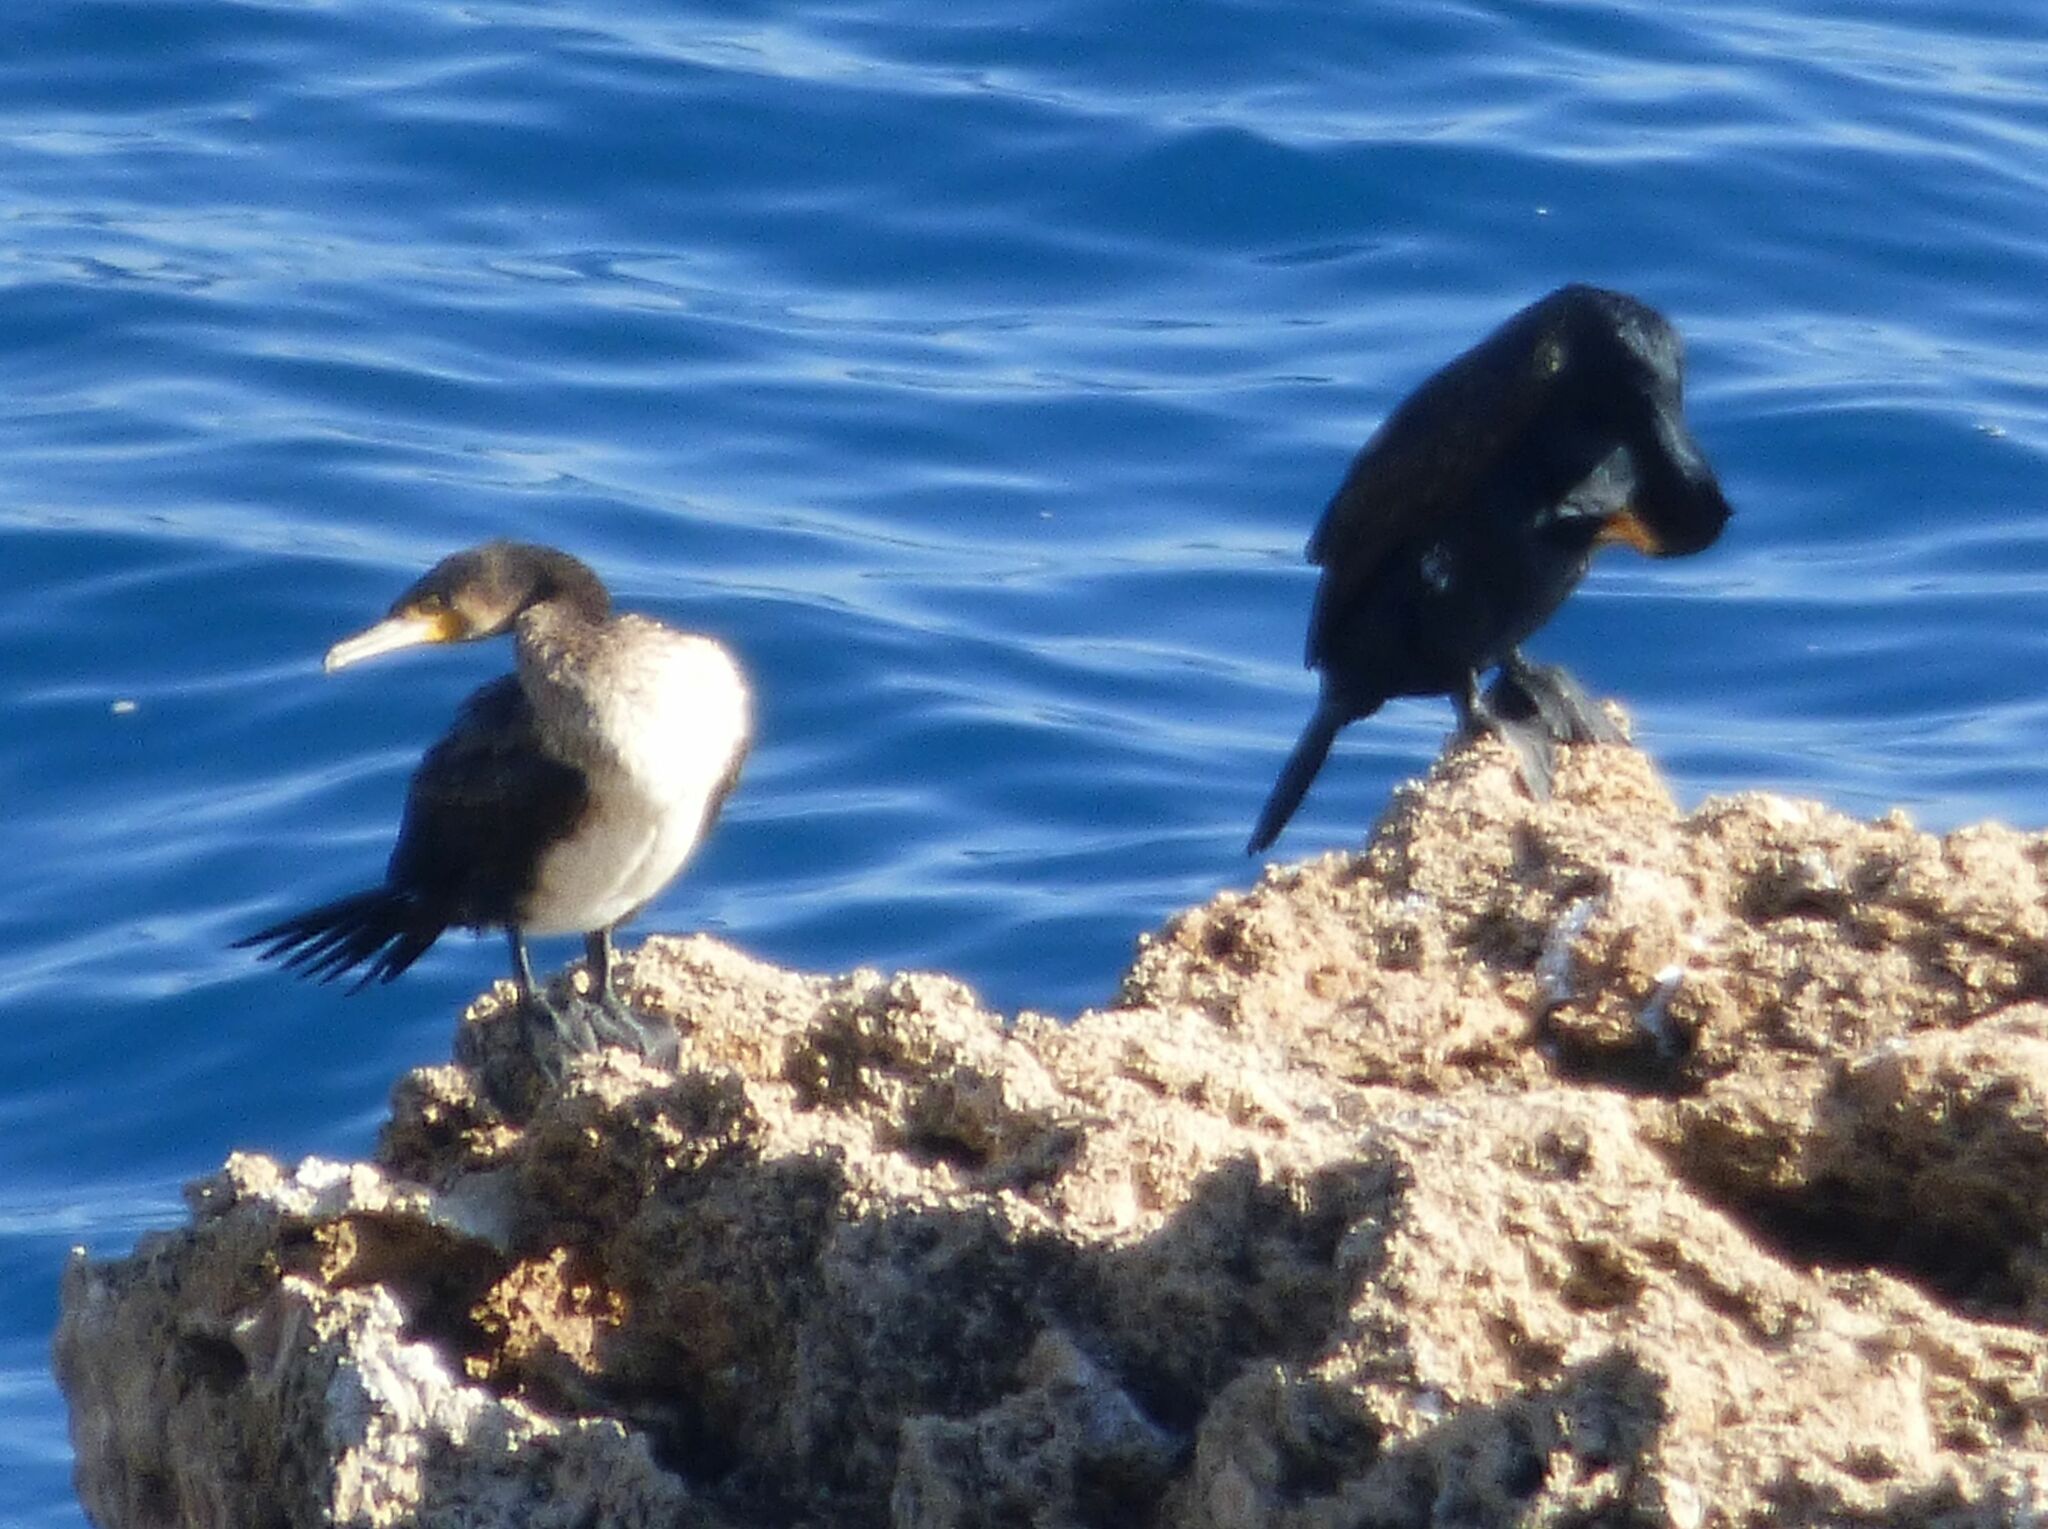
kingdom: Animalia
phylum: Chordata
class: Aves
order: Suliformes
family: Phalacrocoracidae
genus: Phalacrocorax
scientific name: Phalacrocorax carbo
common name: Great cormorant
